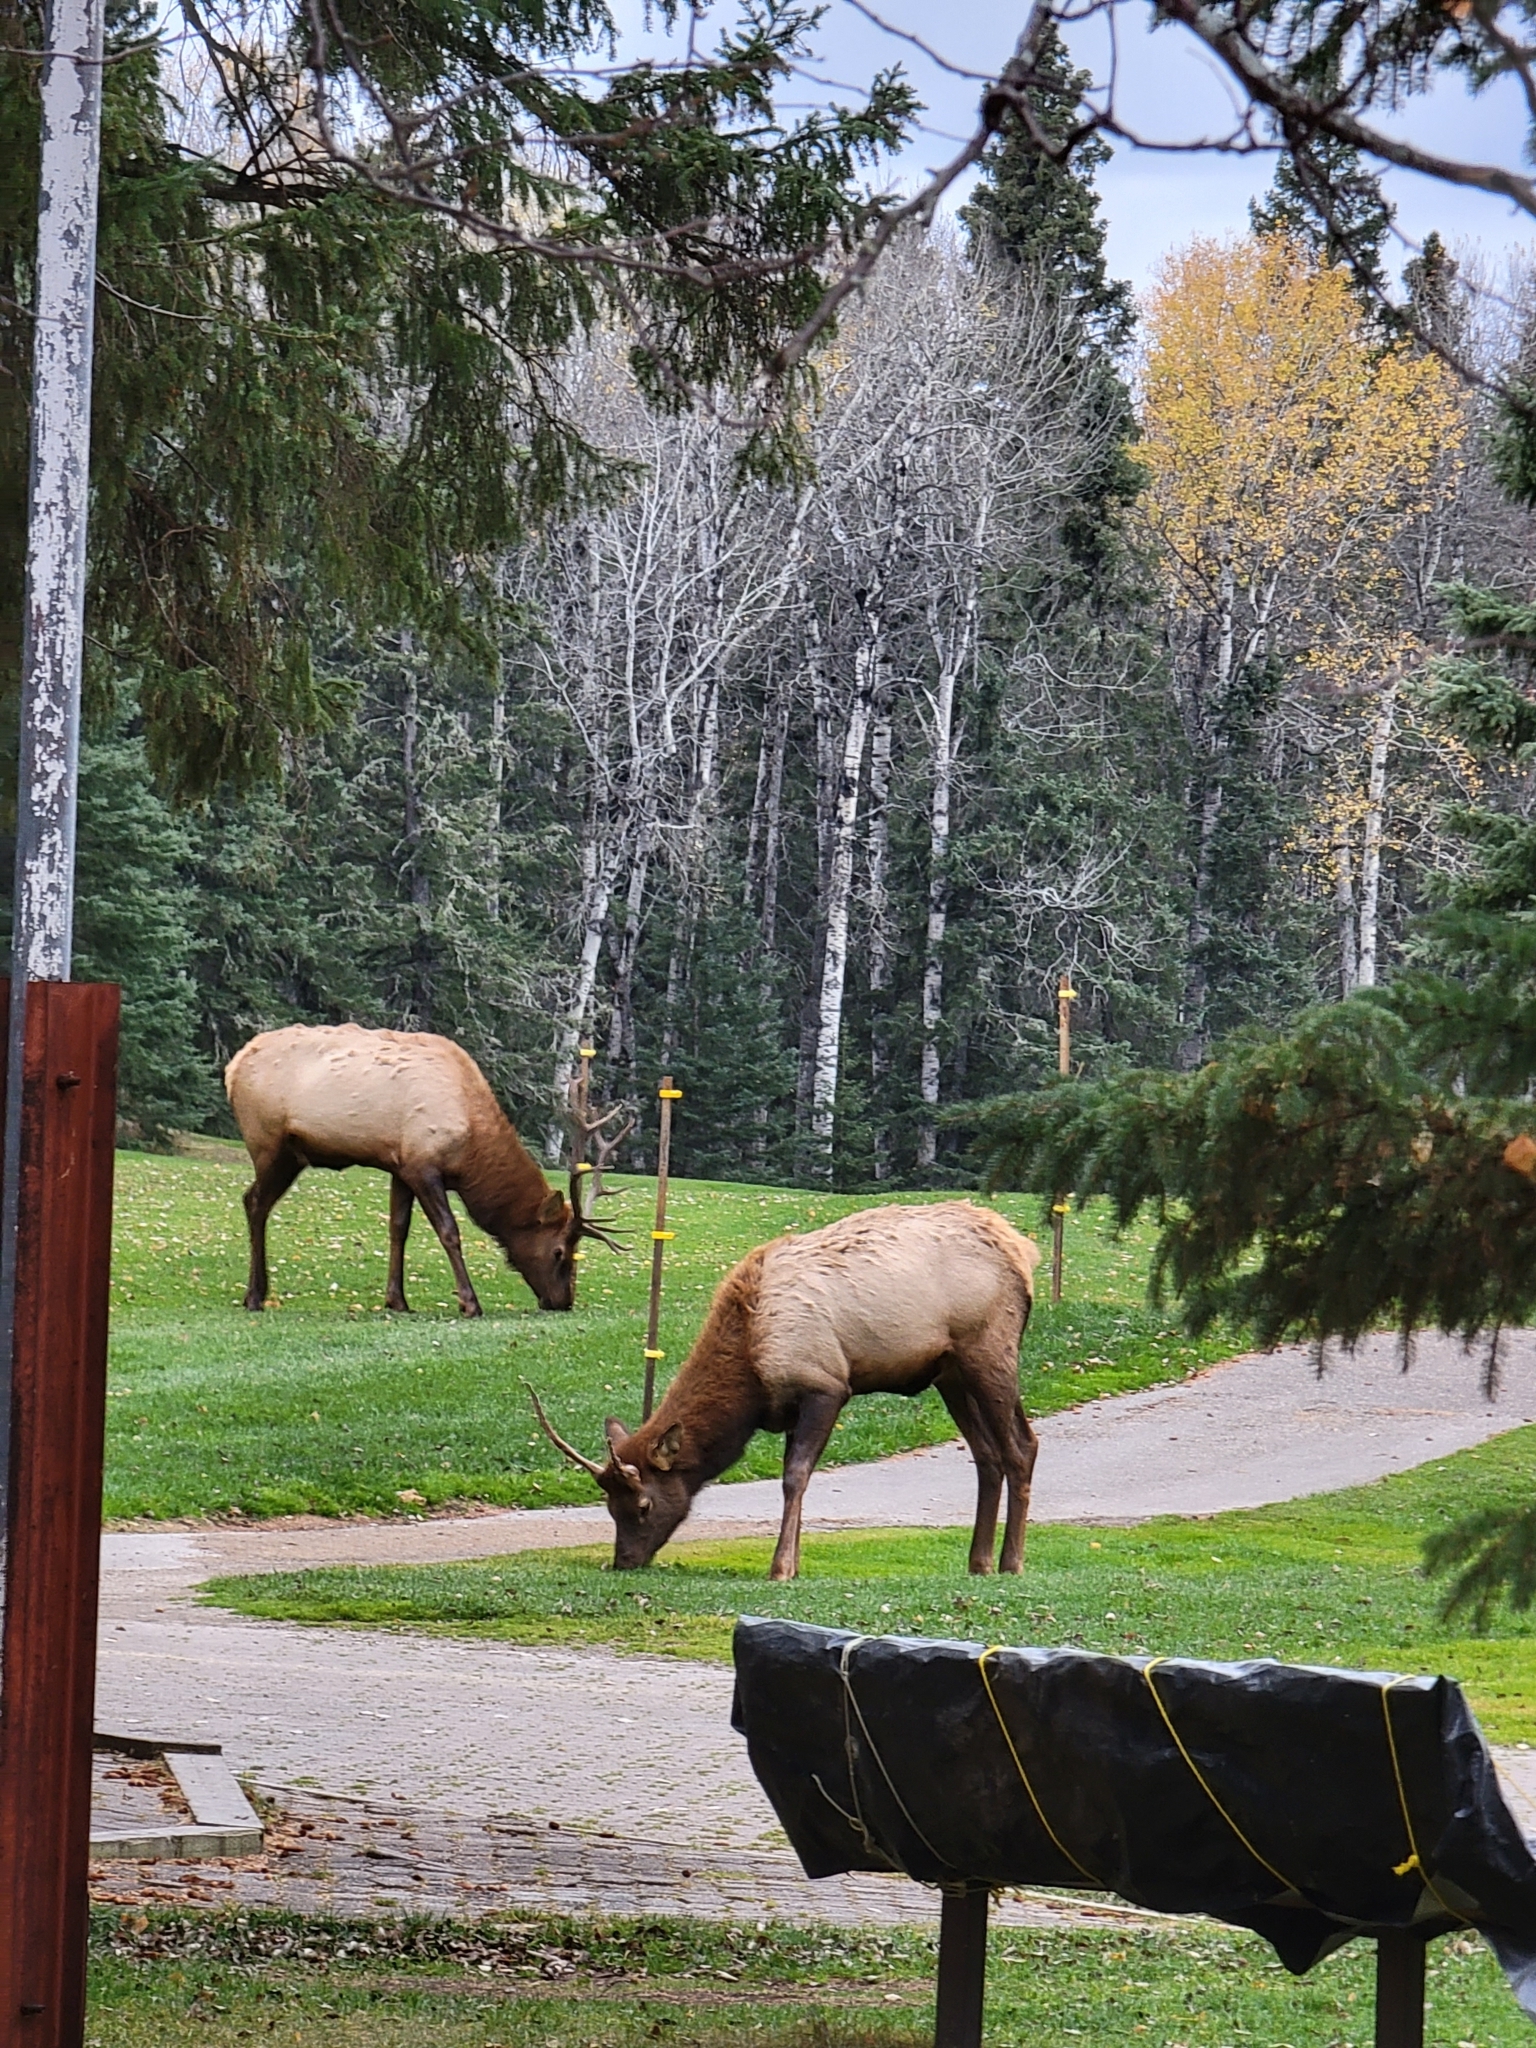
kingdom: Animalia
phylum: Chordata
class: Mammalia
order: Artiodactyla
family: Cervidae
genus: Cervus
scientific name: Cervus elaphus
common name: Red deer
